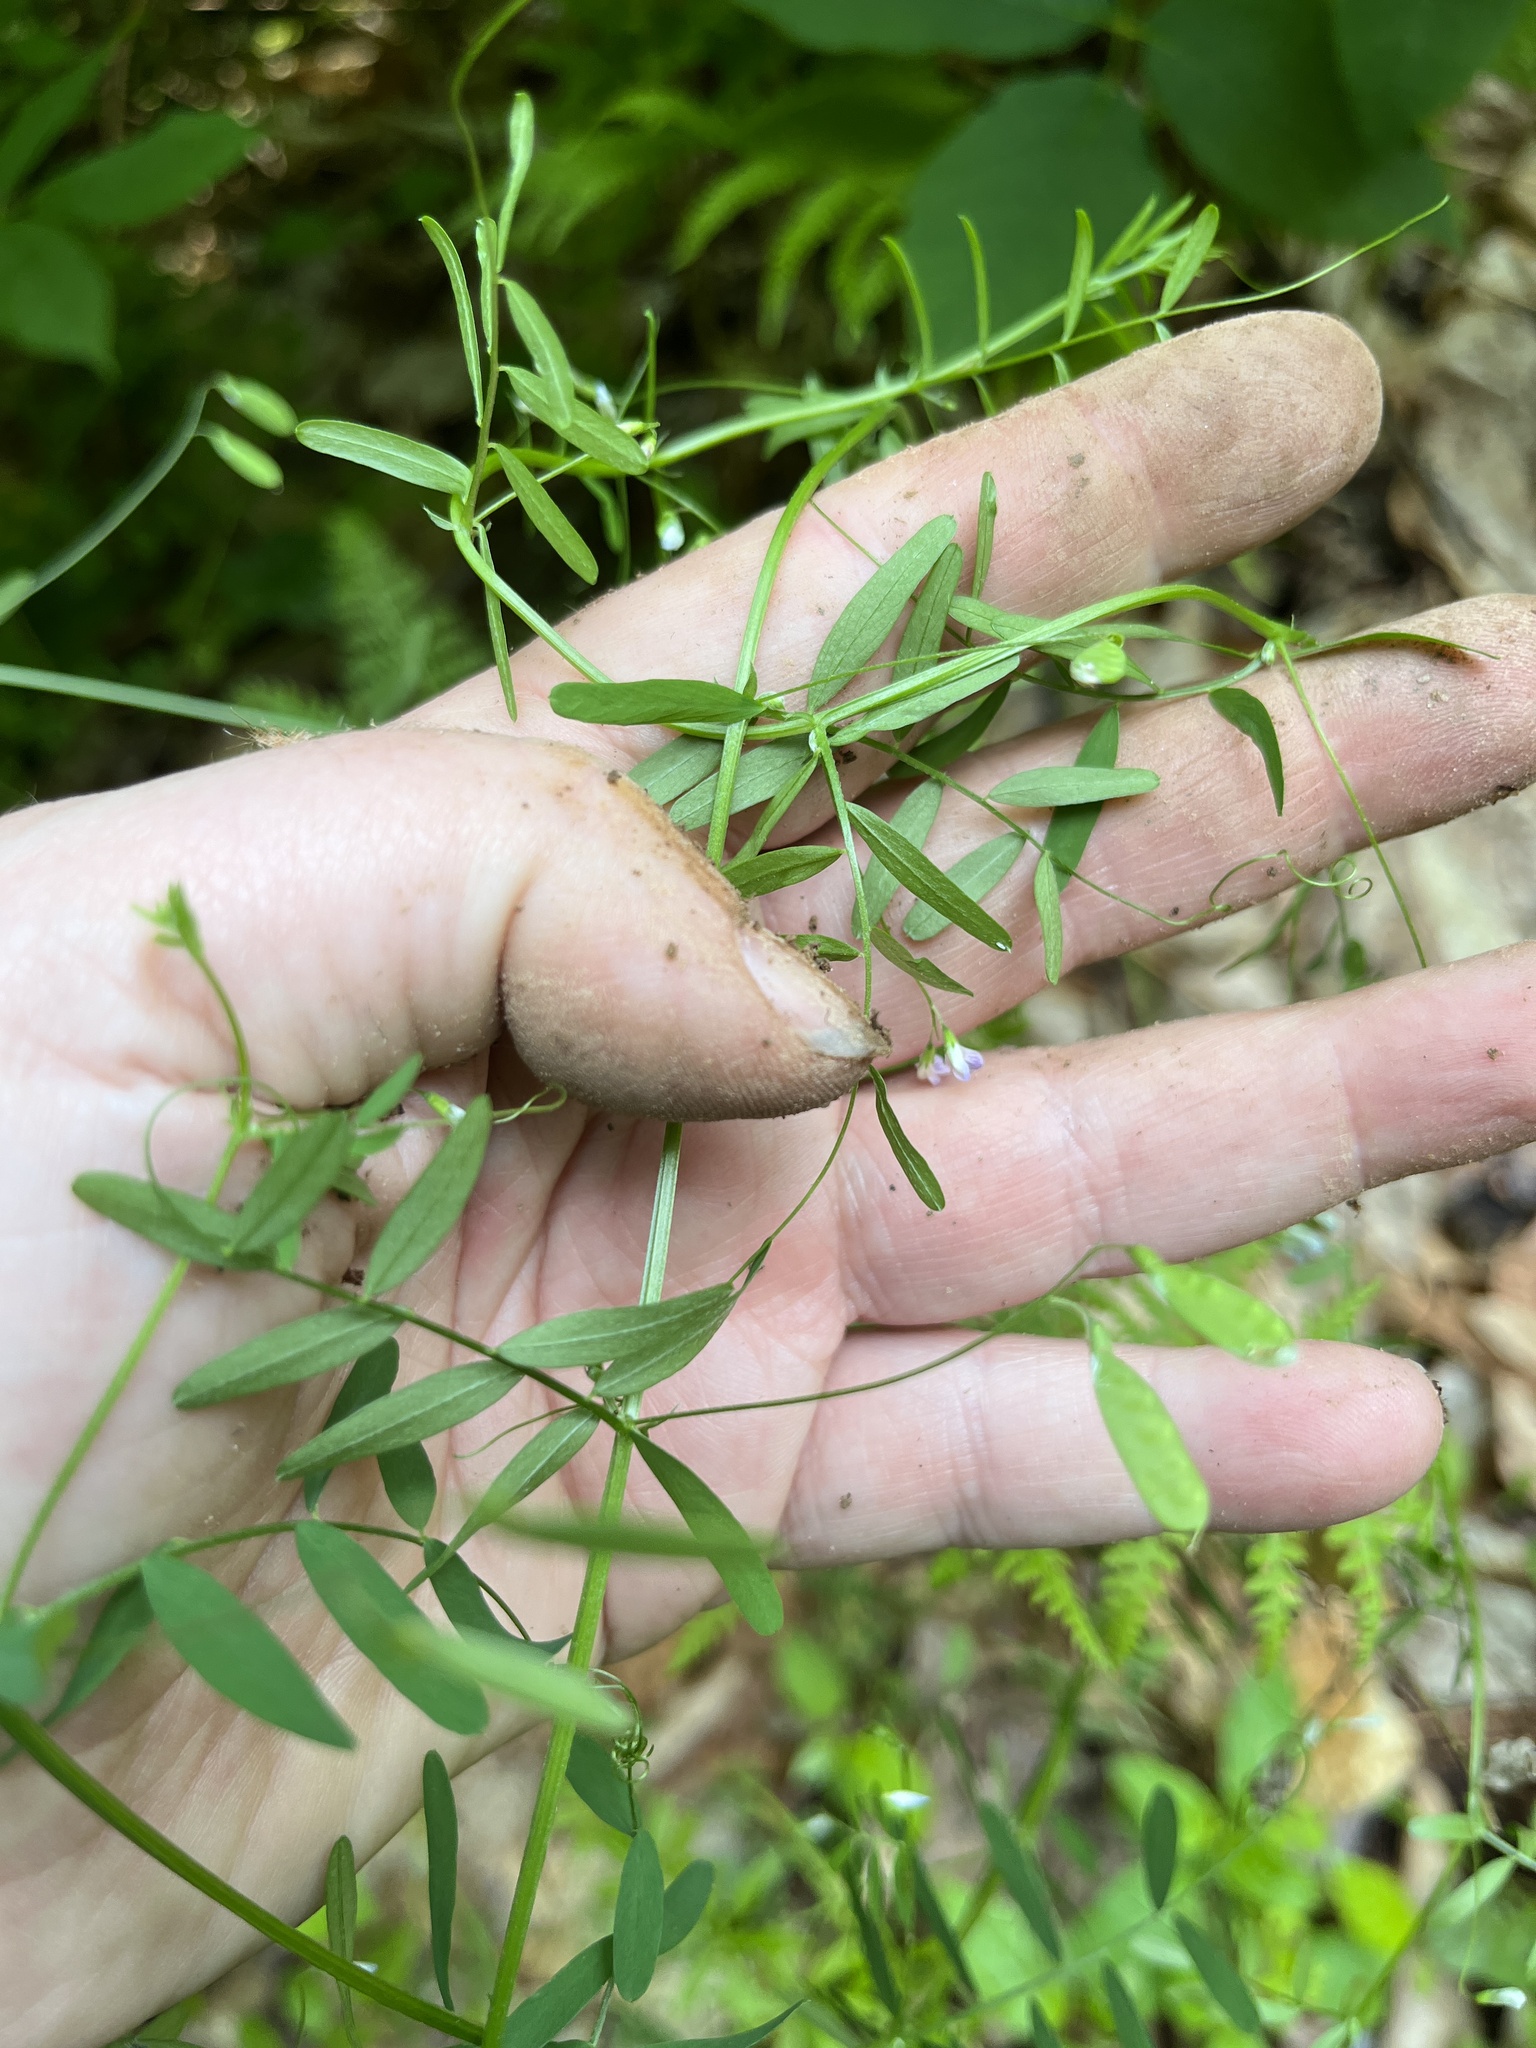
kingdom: Plantae
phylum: Tracheophyta
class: Magnoliopsida
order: Fabales
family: Fabaceae
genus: Vicia
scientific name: Vicia tetrasperma
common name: Smooth tare
